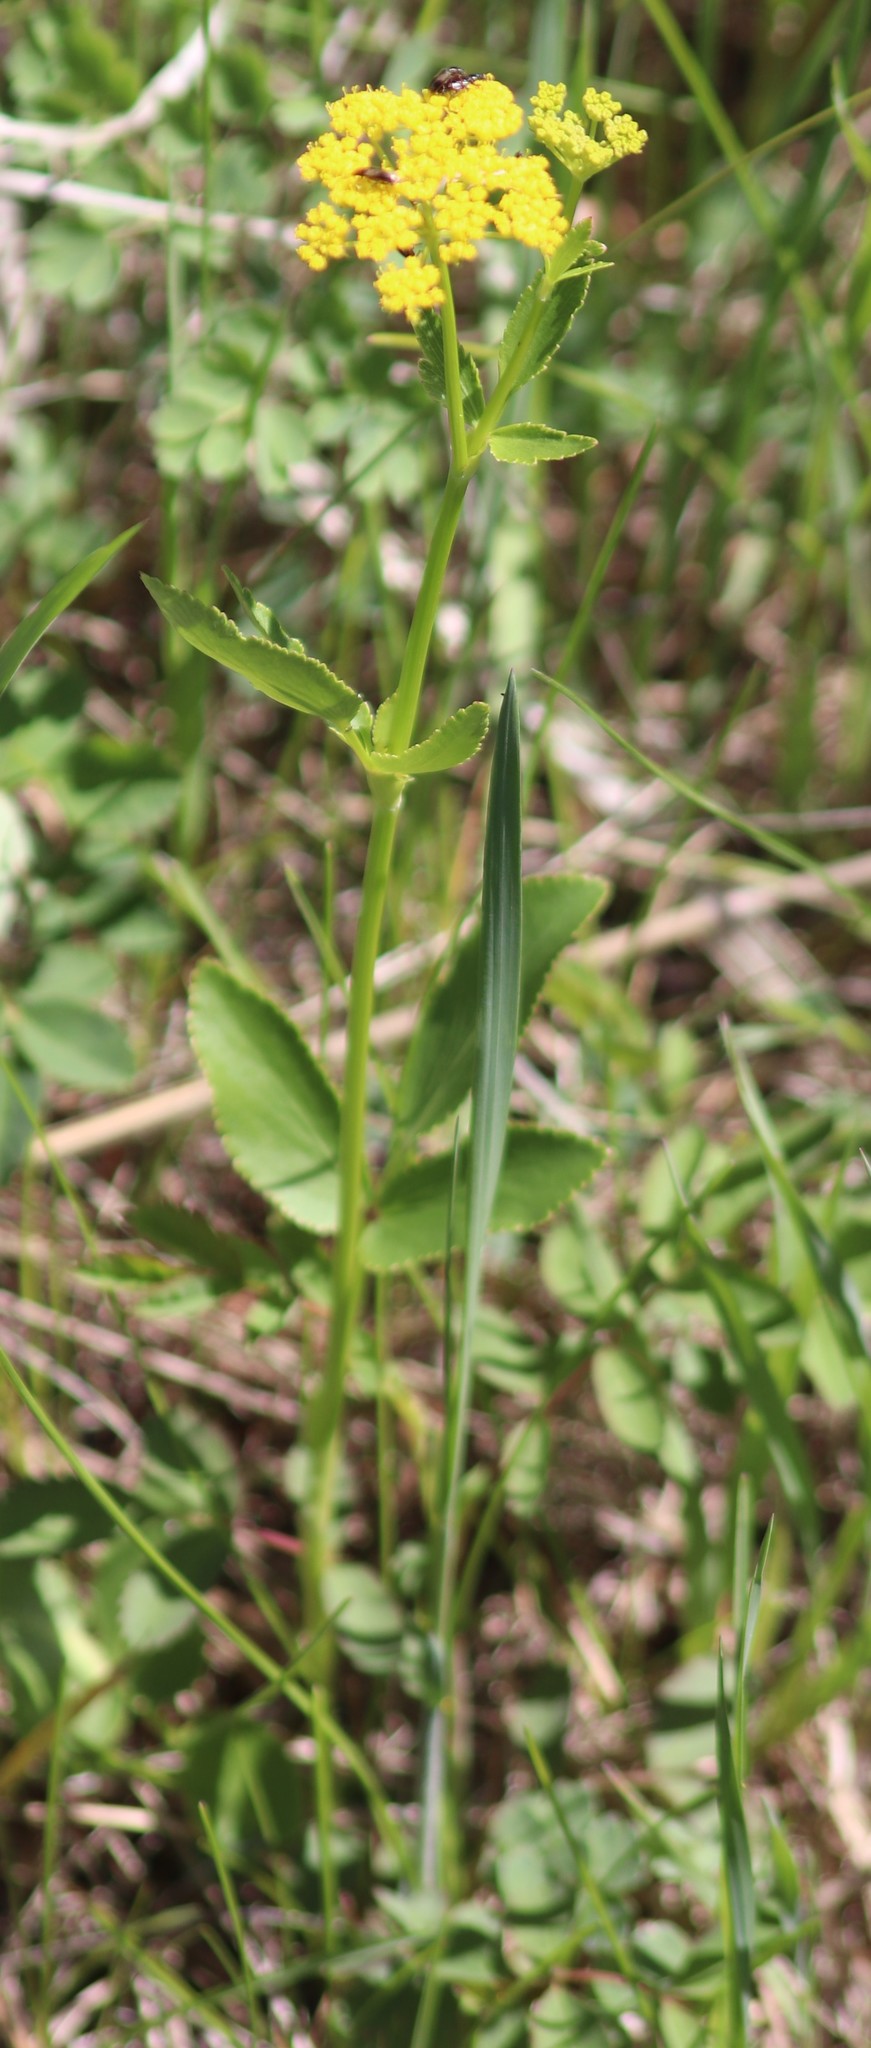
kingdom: Plantae
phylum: Tracheophyta
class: Magnoliopsida
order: Apiales
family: Apiaceae
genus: Zizia
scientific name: Zizia aptera
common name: Heart-leaved alexanders
